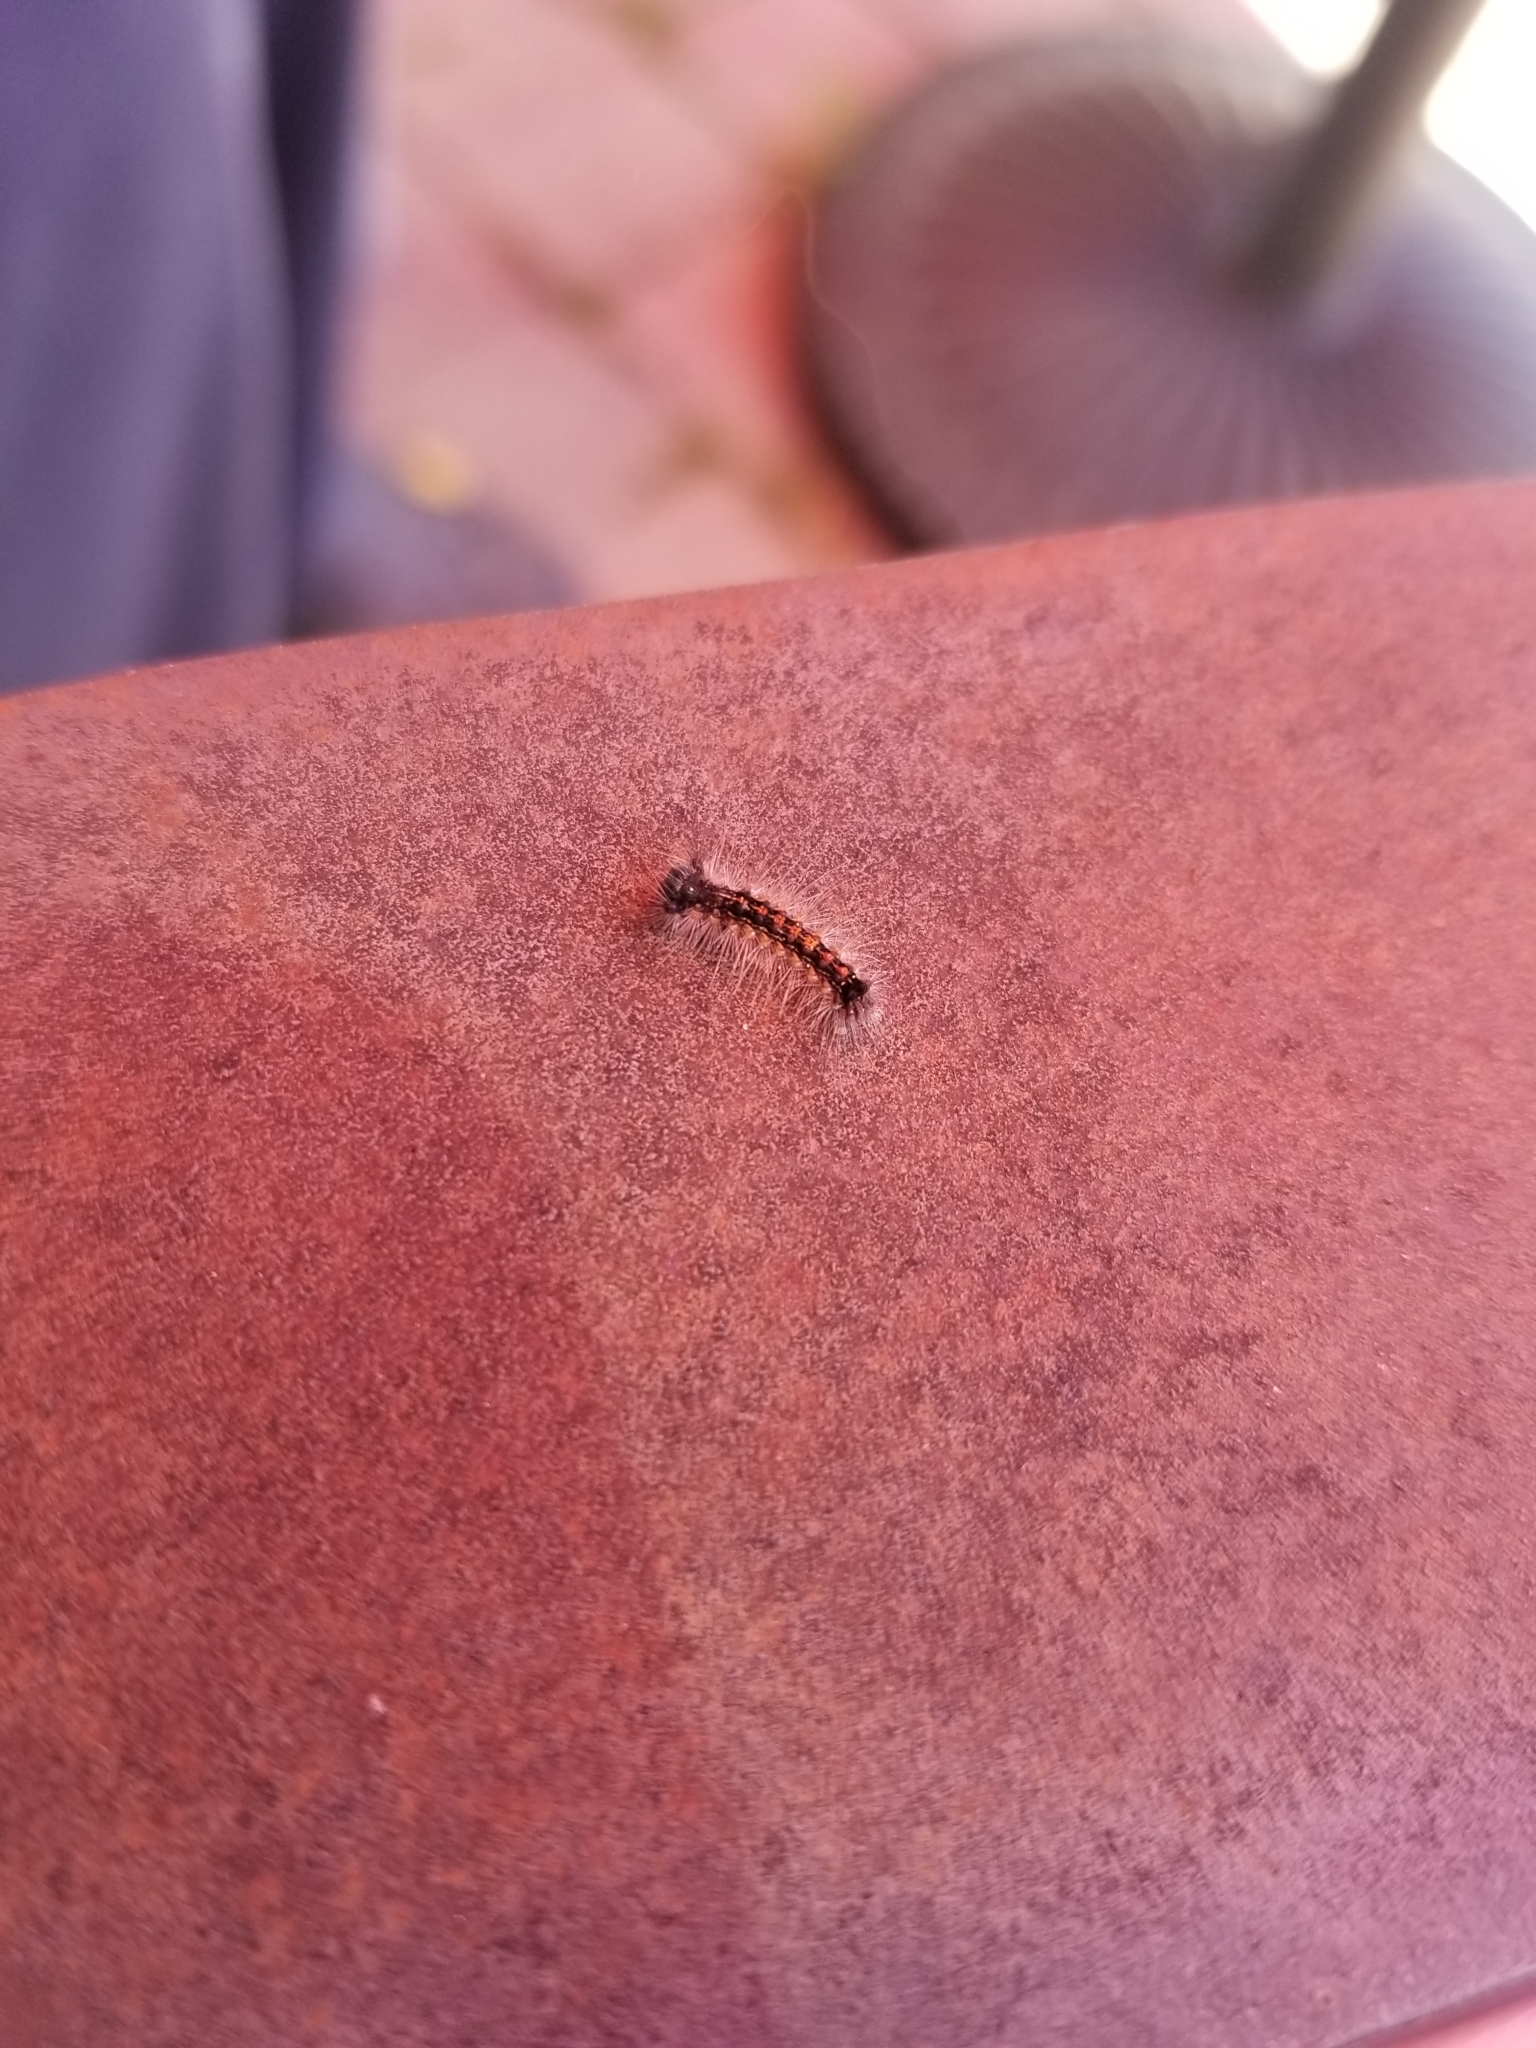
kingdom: Animalia
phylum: Arthropoda
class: Insecta
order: Lepidoptera
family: Erebidae
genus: Lymantria
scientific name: Lymantria dispar
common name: Gypsy moth
